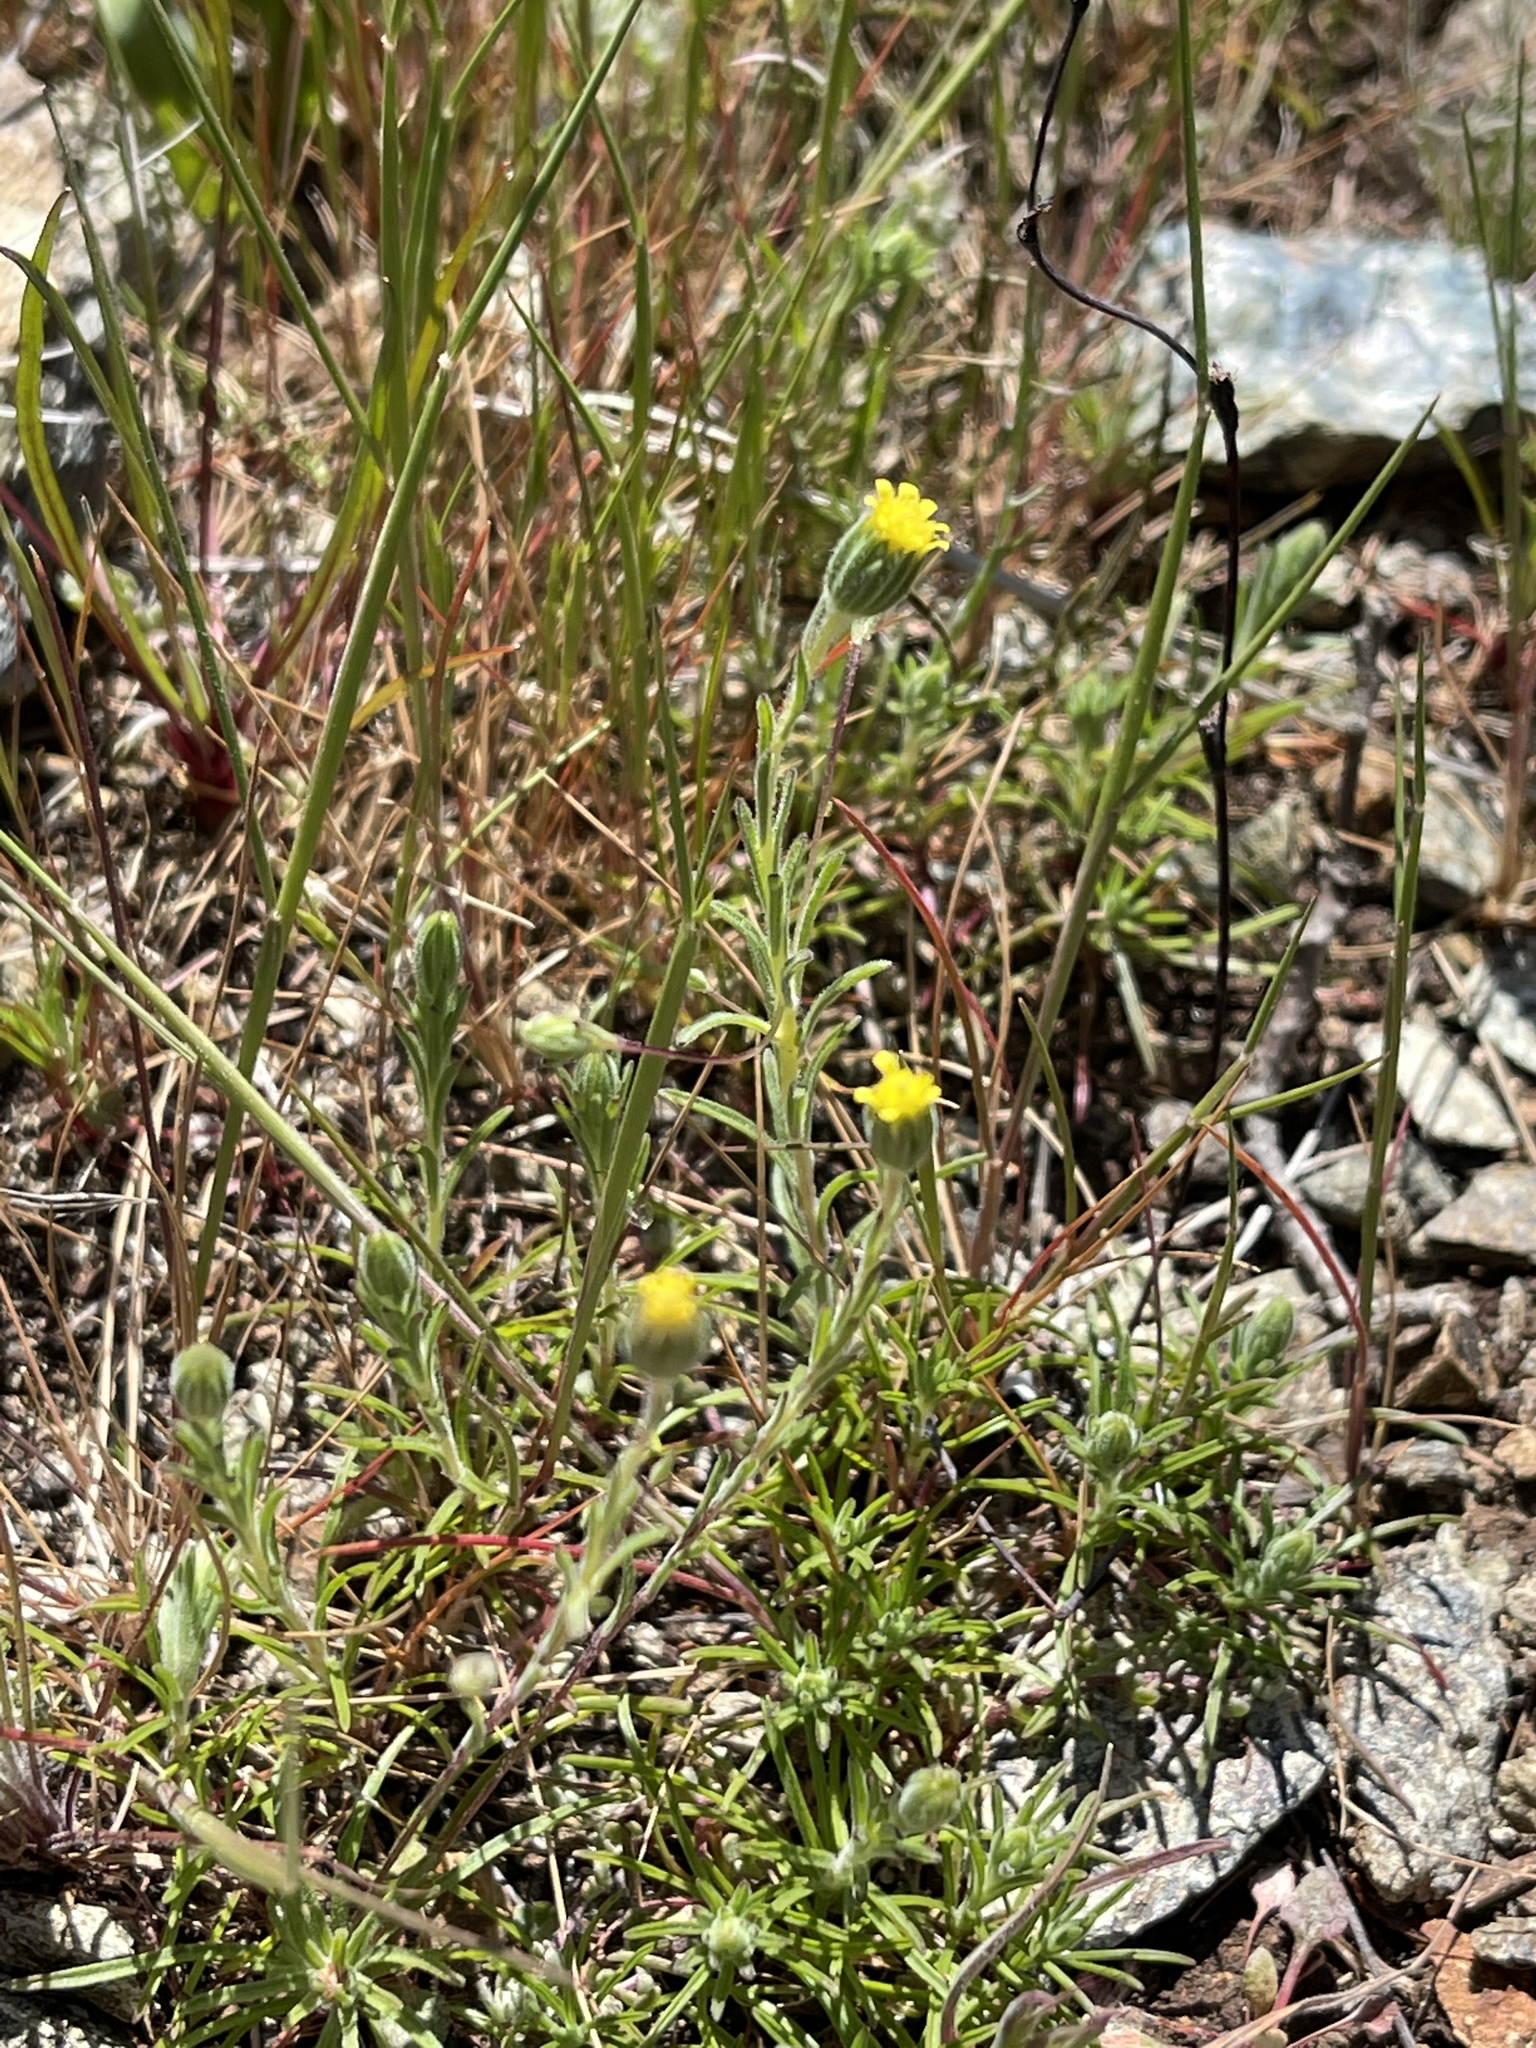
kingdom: Plantae
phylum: Tracheophyta
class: Magnoliopsida
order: Asterales
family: Asteraceae
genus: Rigiopappus
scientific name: Rigiopappus leptocladus
